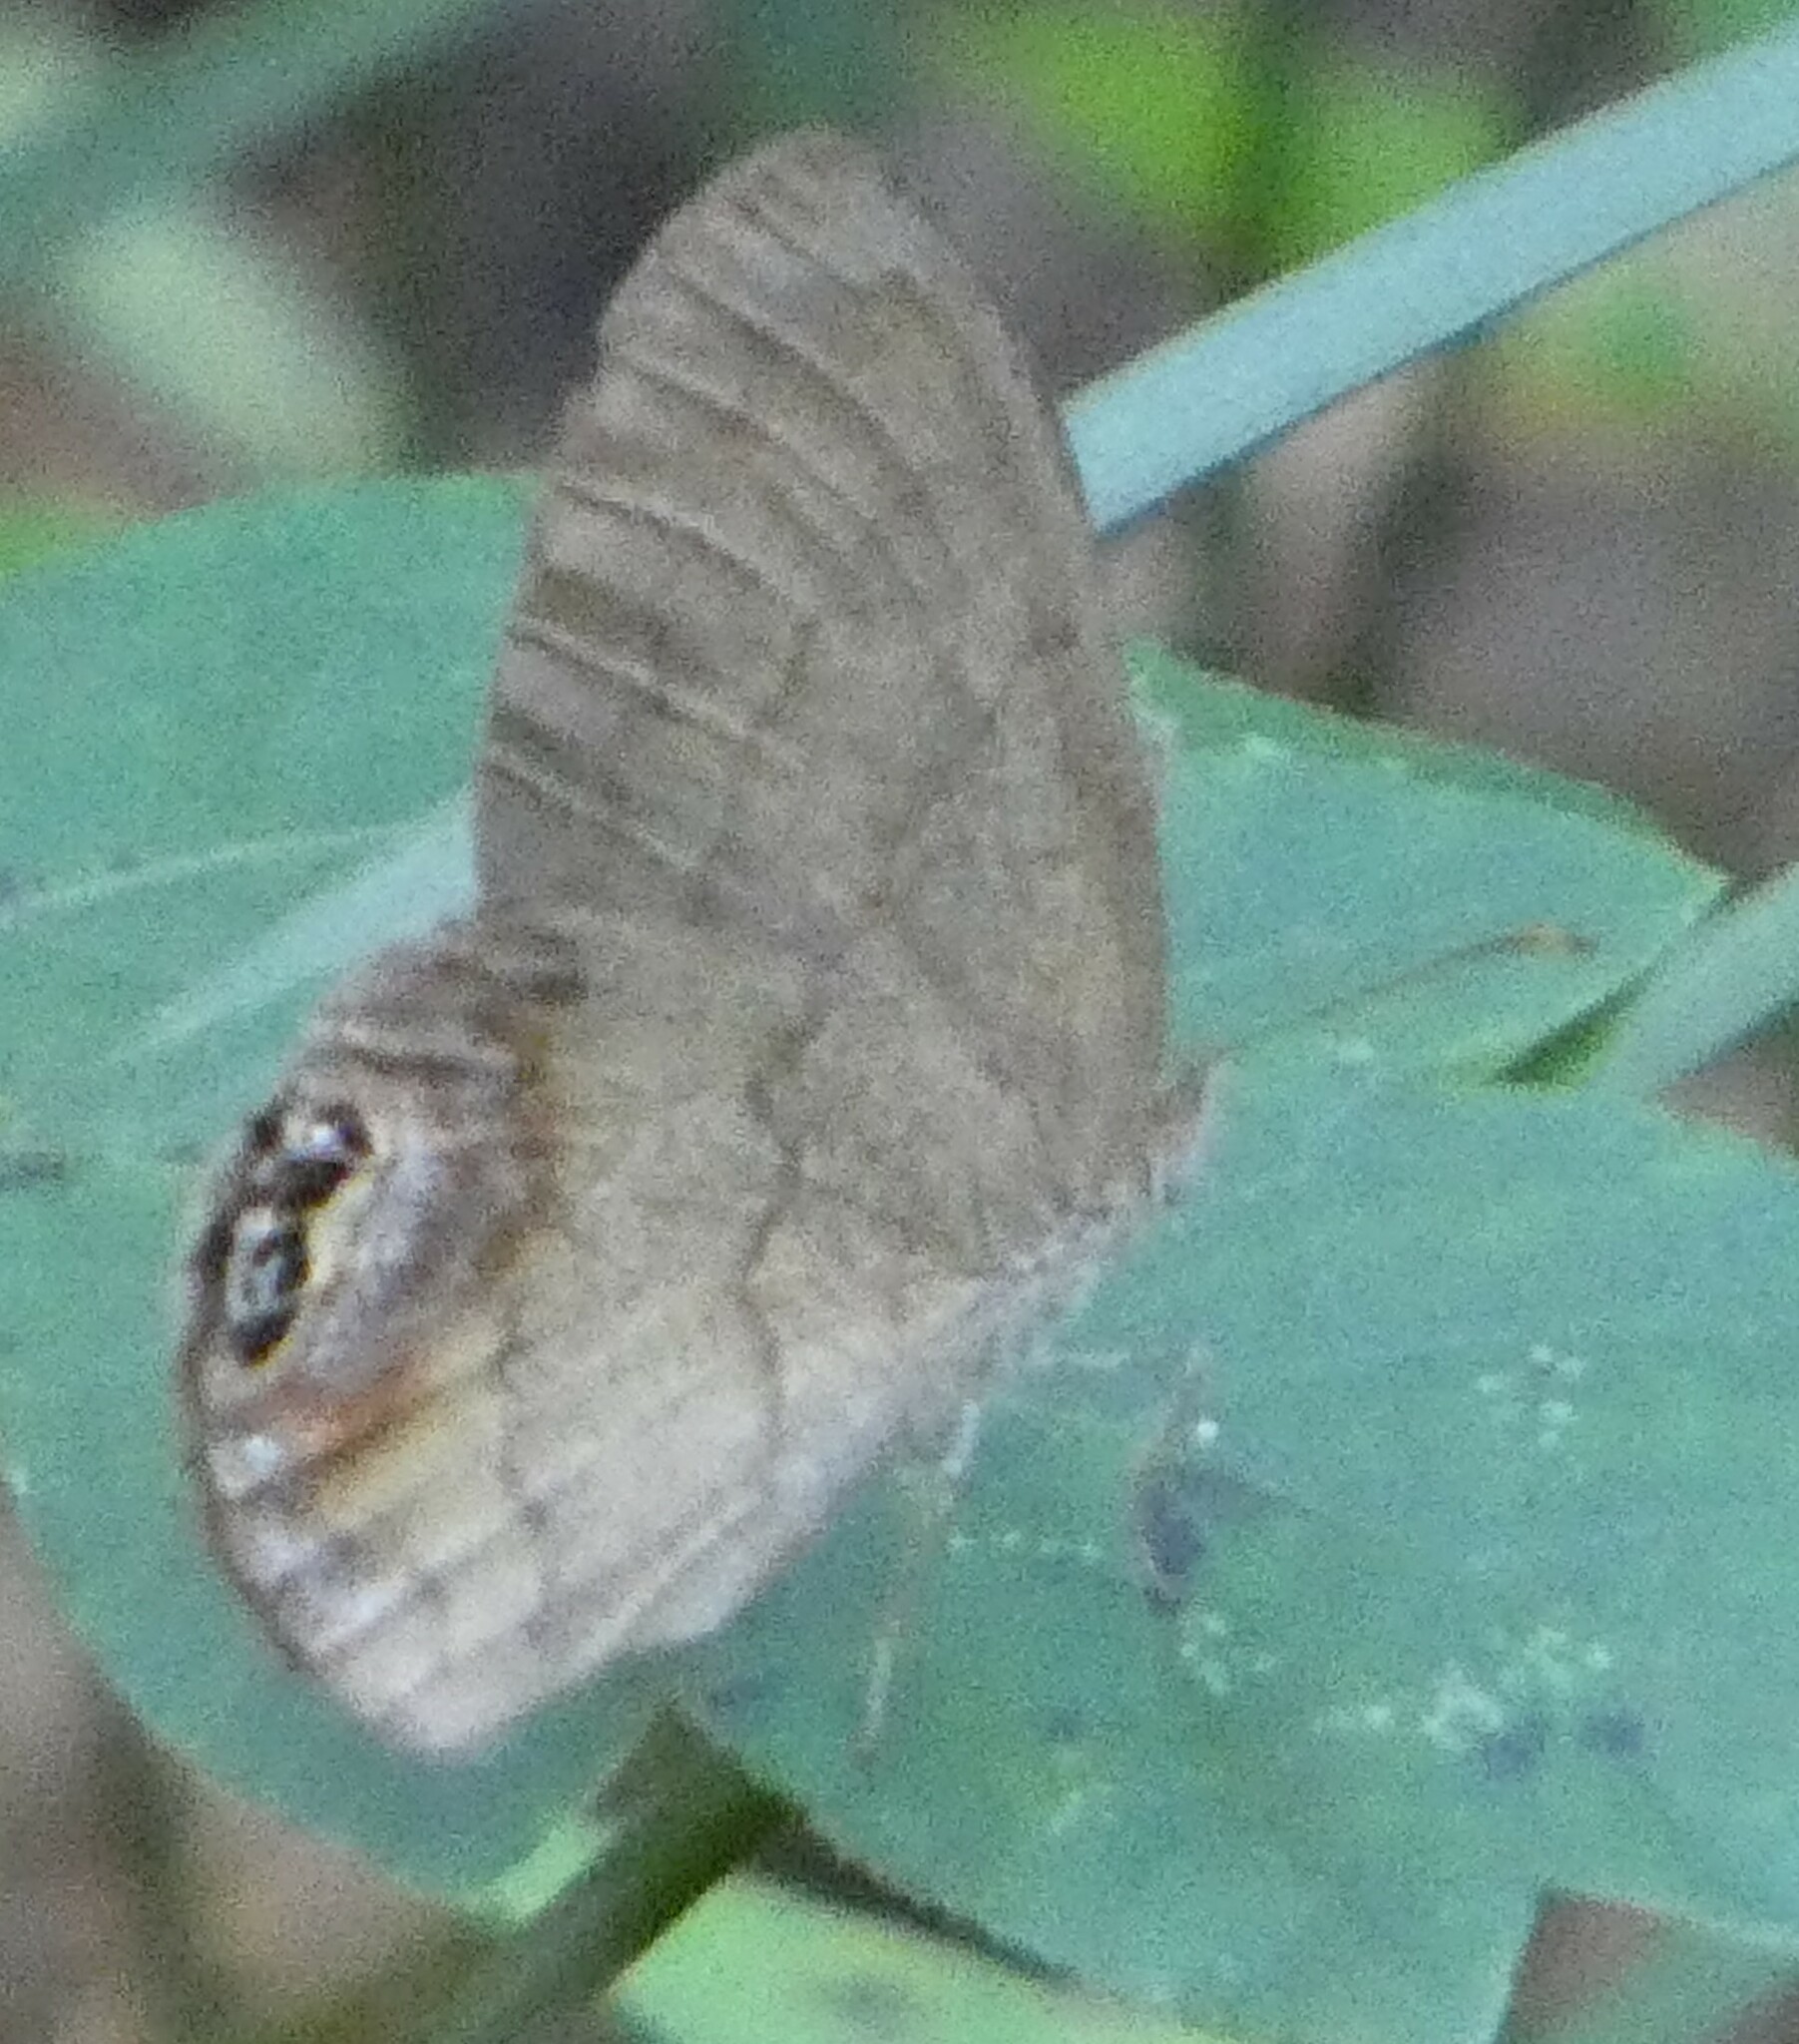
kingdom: Animalia
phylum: Arthropoda
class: Insecta
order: Lepidoptera
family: Nymphalidae
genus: Euptychia
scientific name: Euptychia cornelius
